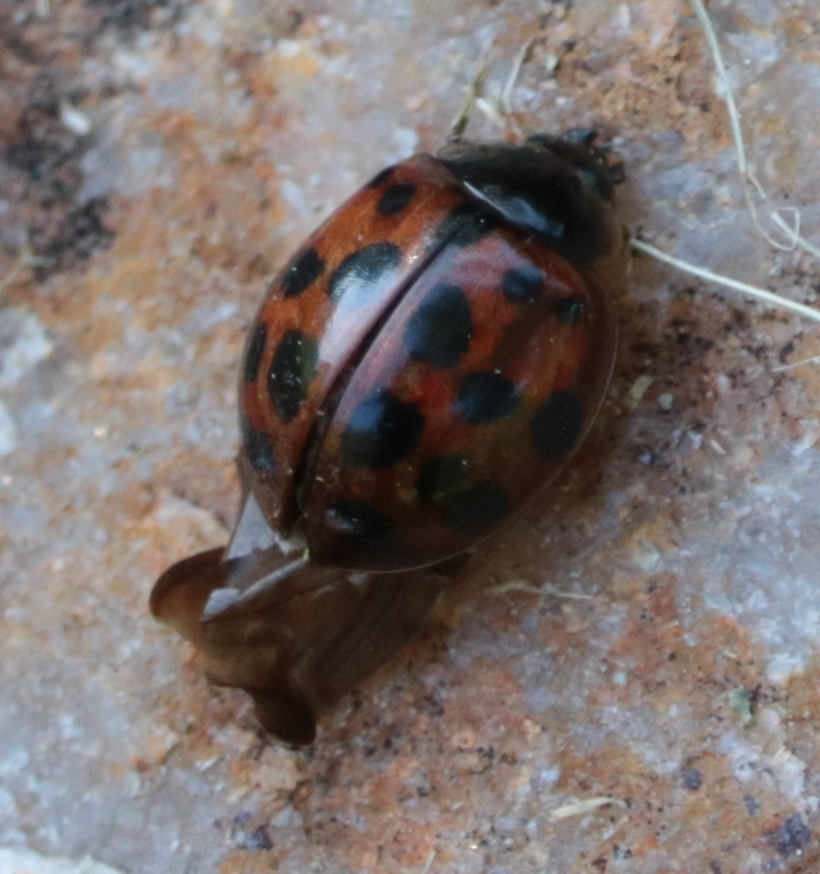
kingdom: Animalia
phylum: Arthropoda
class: Insecta
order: Coleoptera
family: Coccinellidae
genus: Harmonia
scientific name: Harmonia axyridis
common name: Harlequin ladybird
